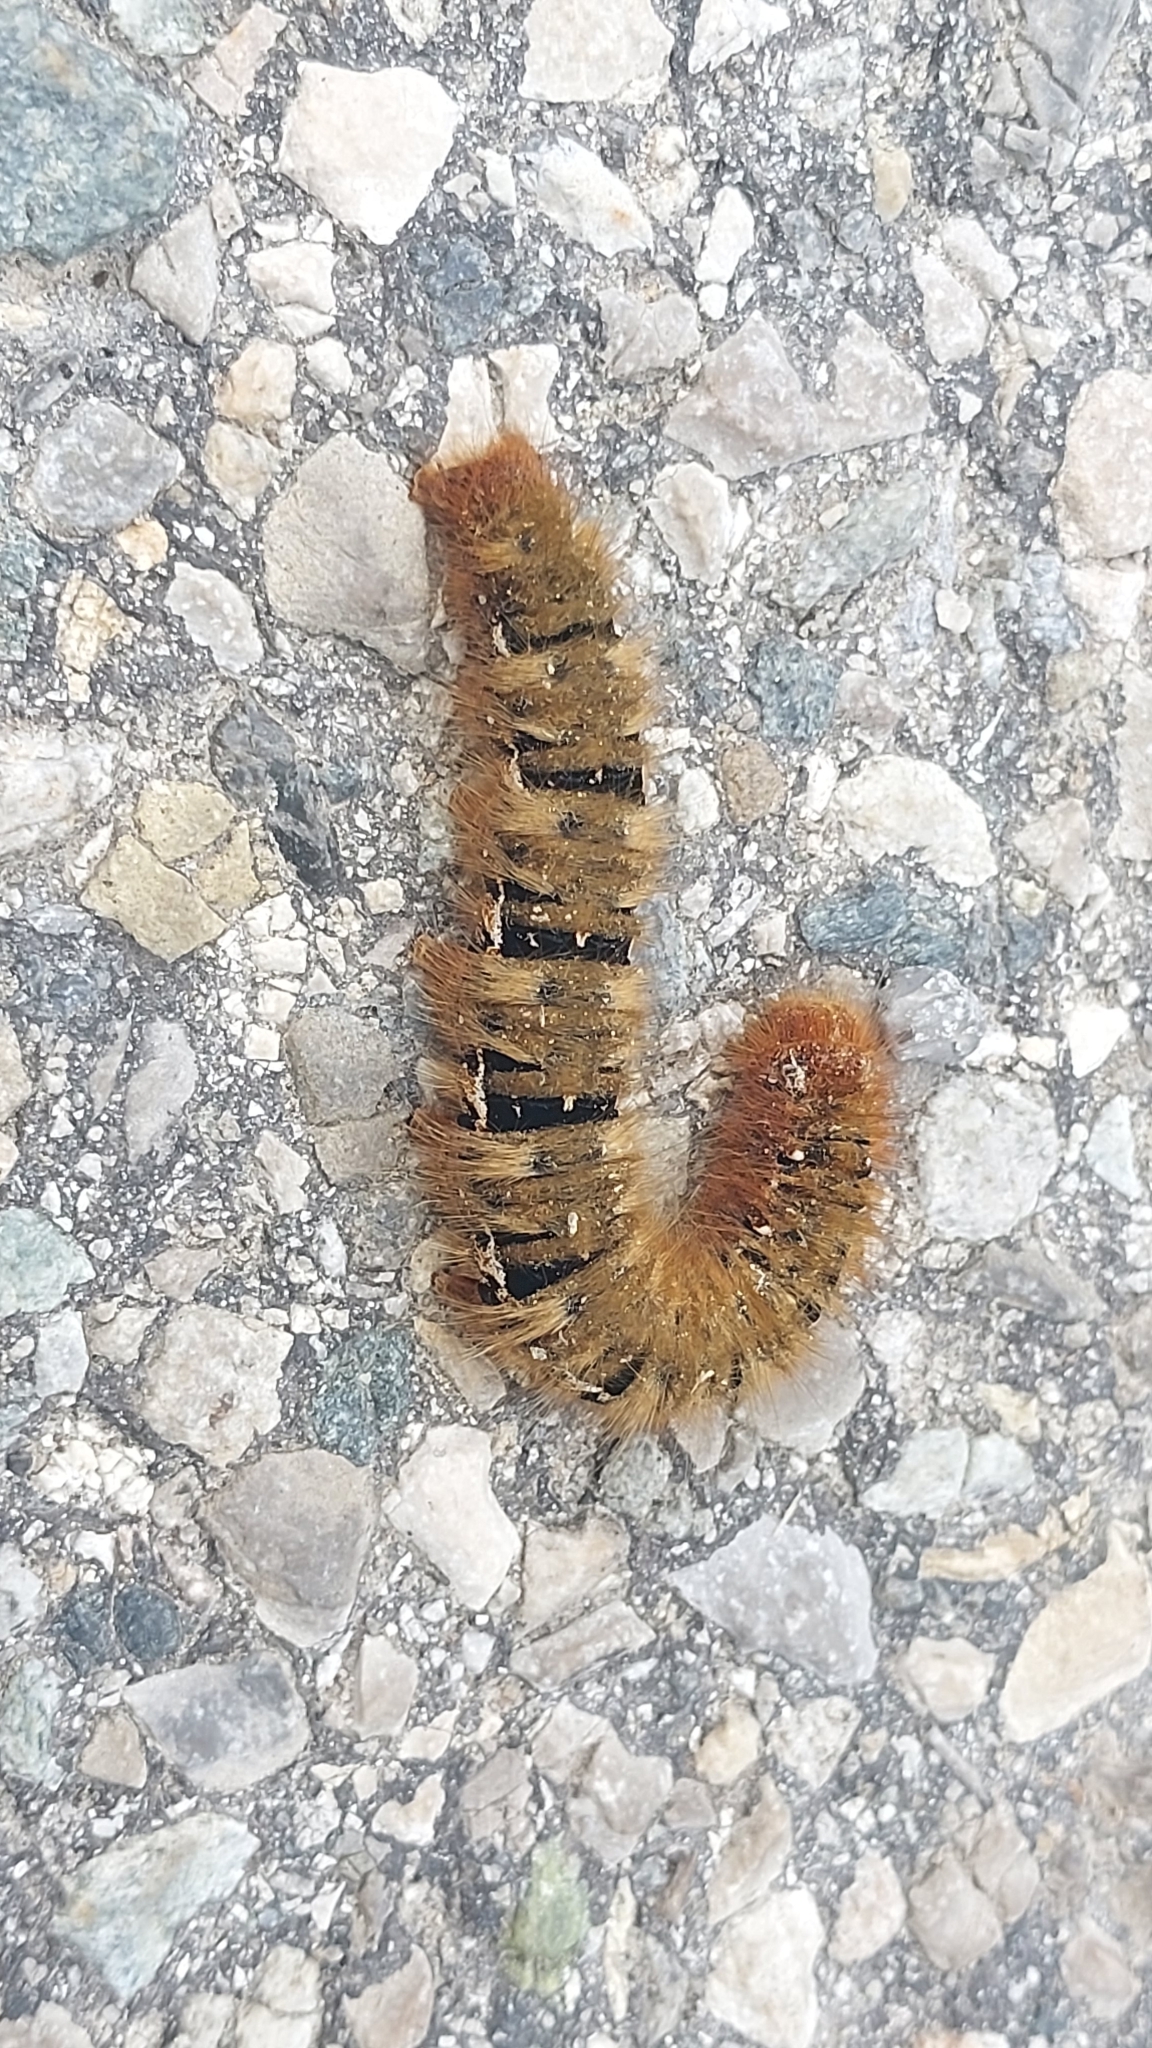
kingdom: Animalia
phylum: Arthropoda
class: Insecta
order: Lepidoptera
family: Lasiocampidae
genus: Lasiocampa
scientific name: Lasiocampa quercus
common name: Oak eggar
